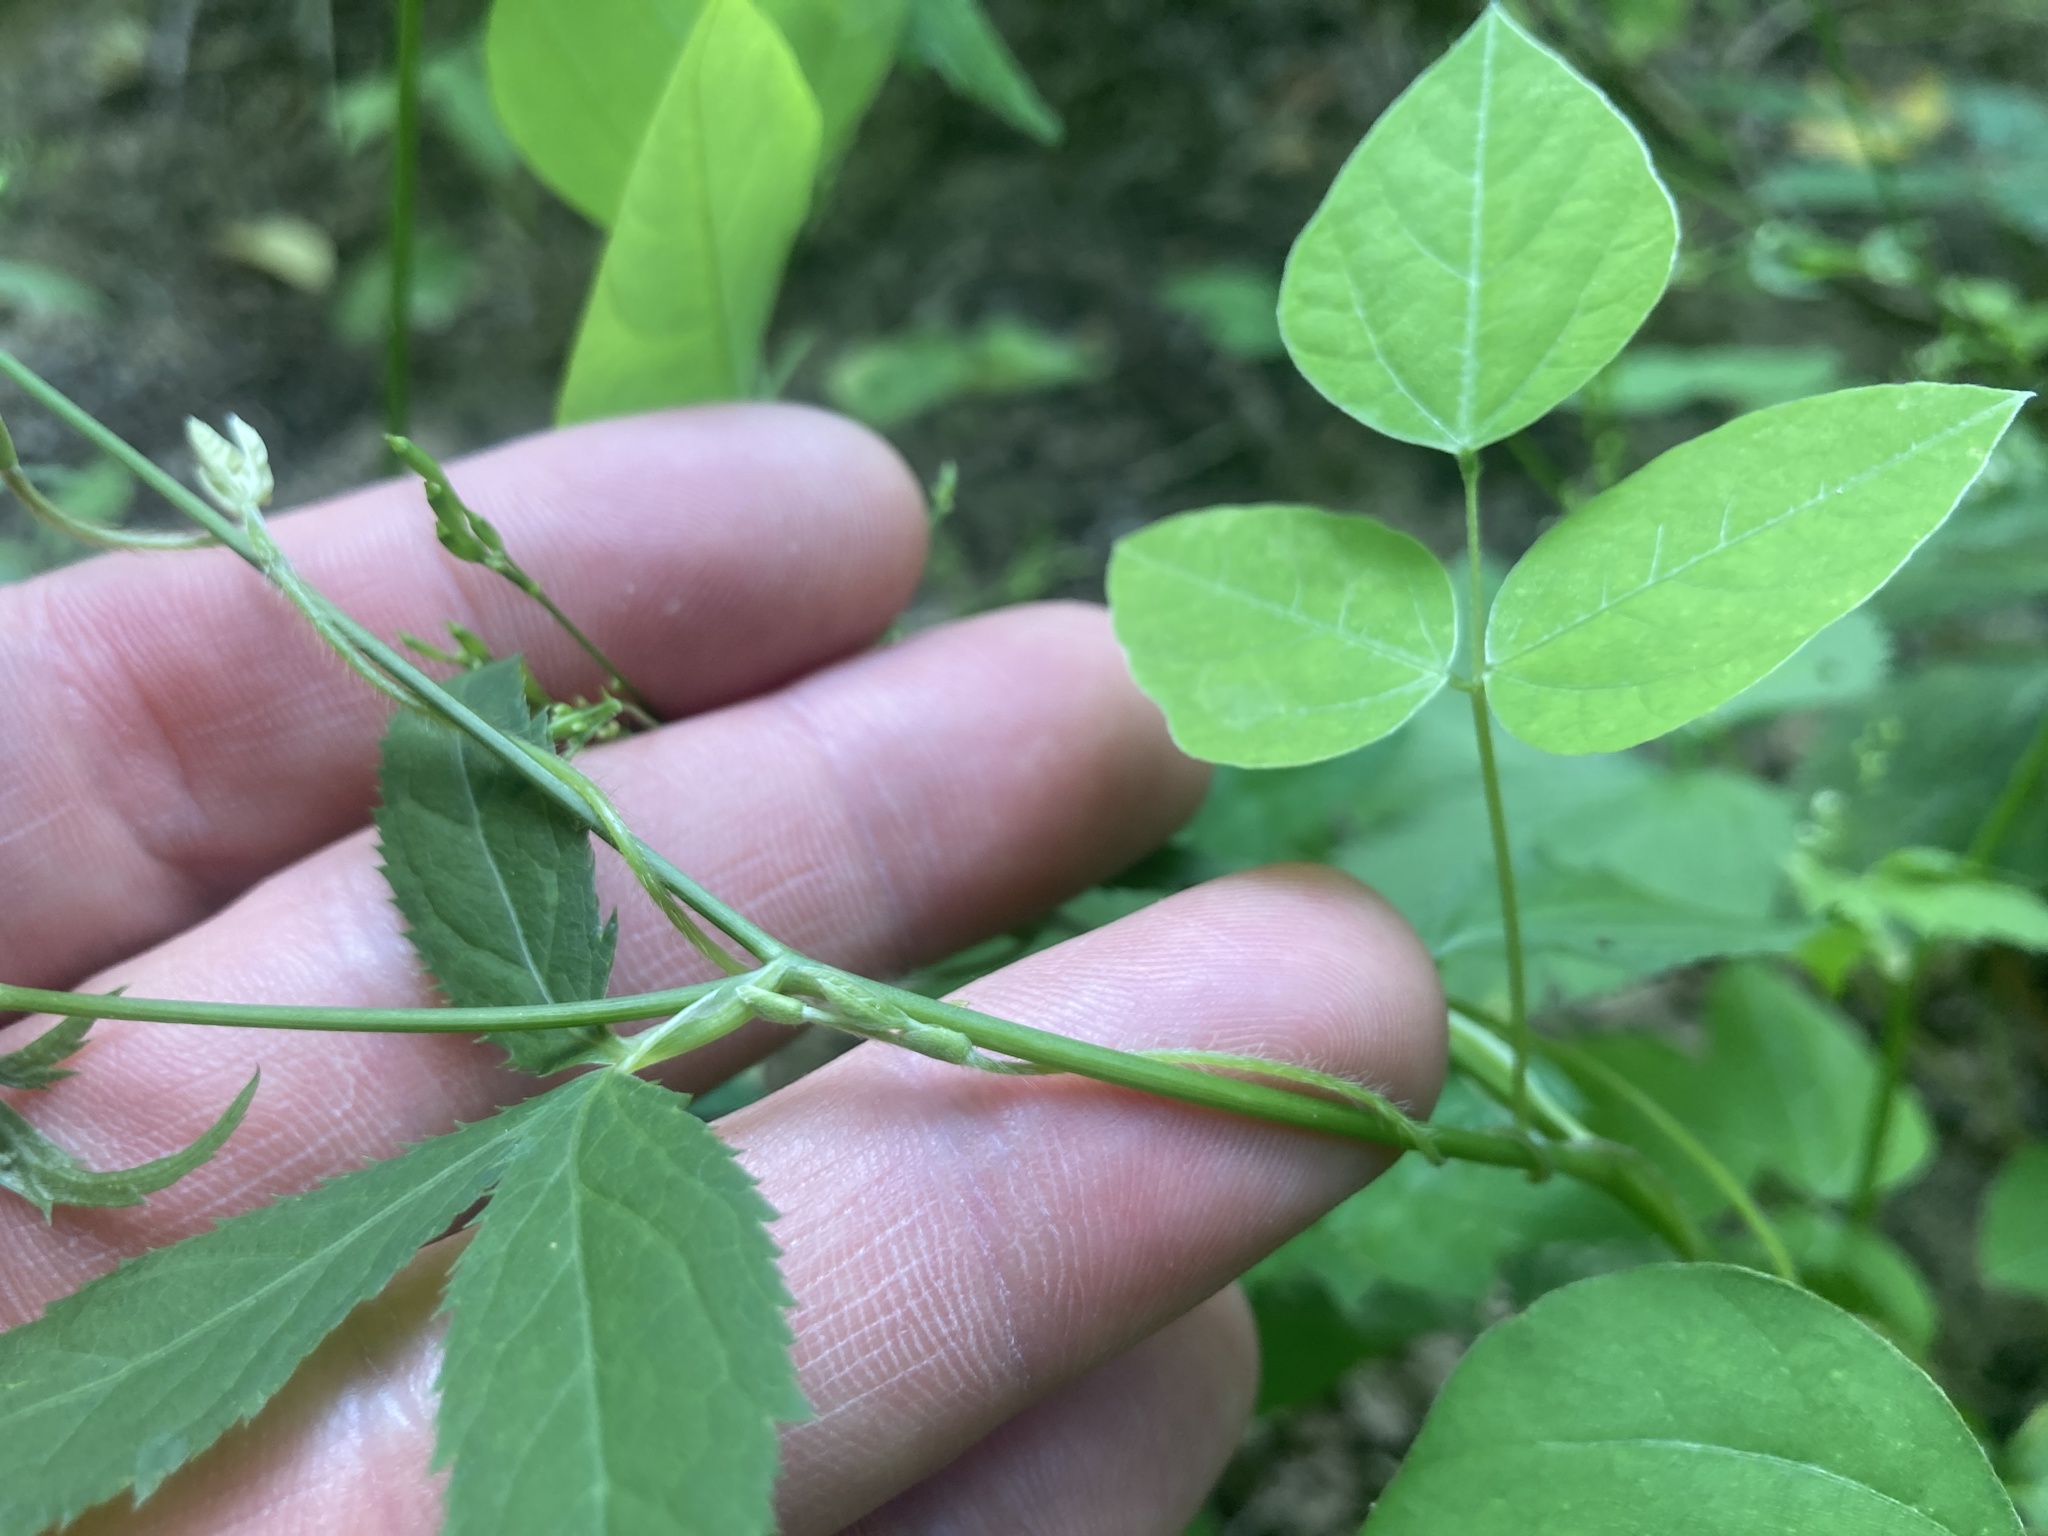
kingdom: Plantae
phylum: Tracheophyta
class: Magnoliopsida
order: Fabales
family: Fabaceae
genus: Amphicarpaea
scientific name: Amphicarpaea bracteata
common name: American hog peanut
